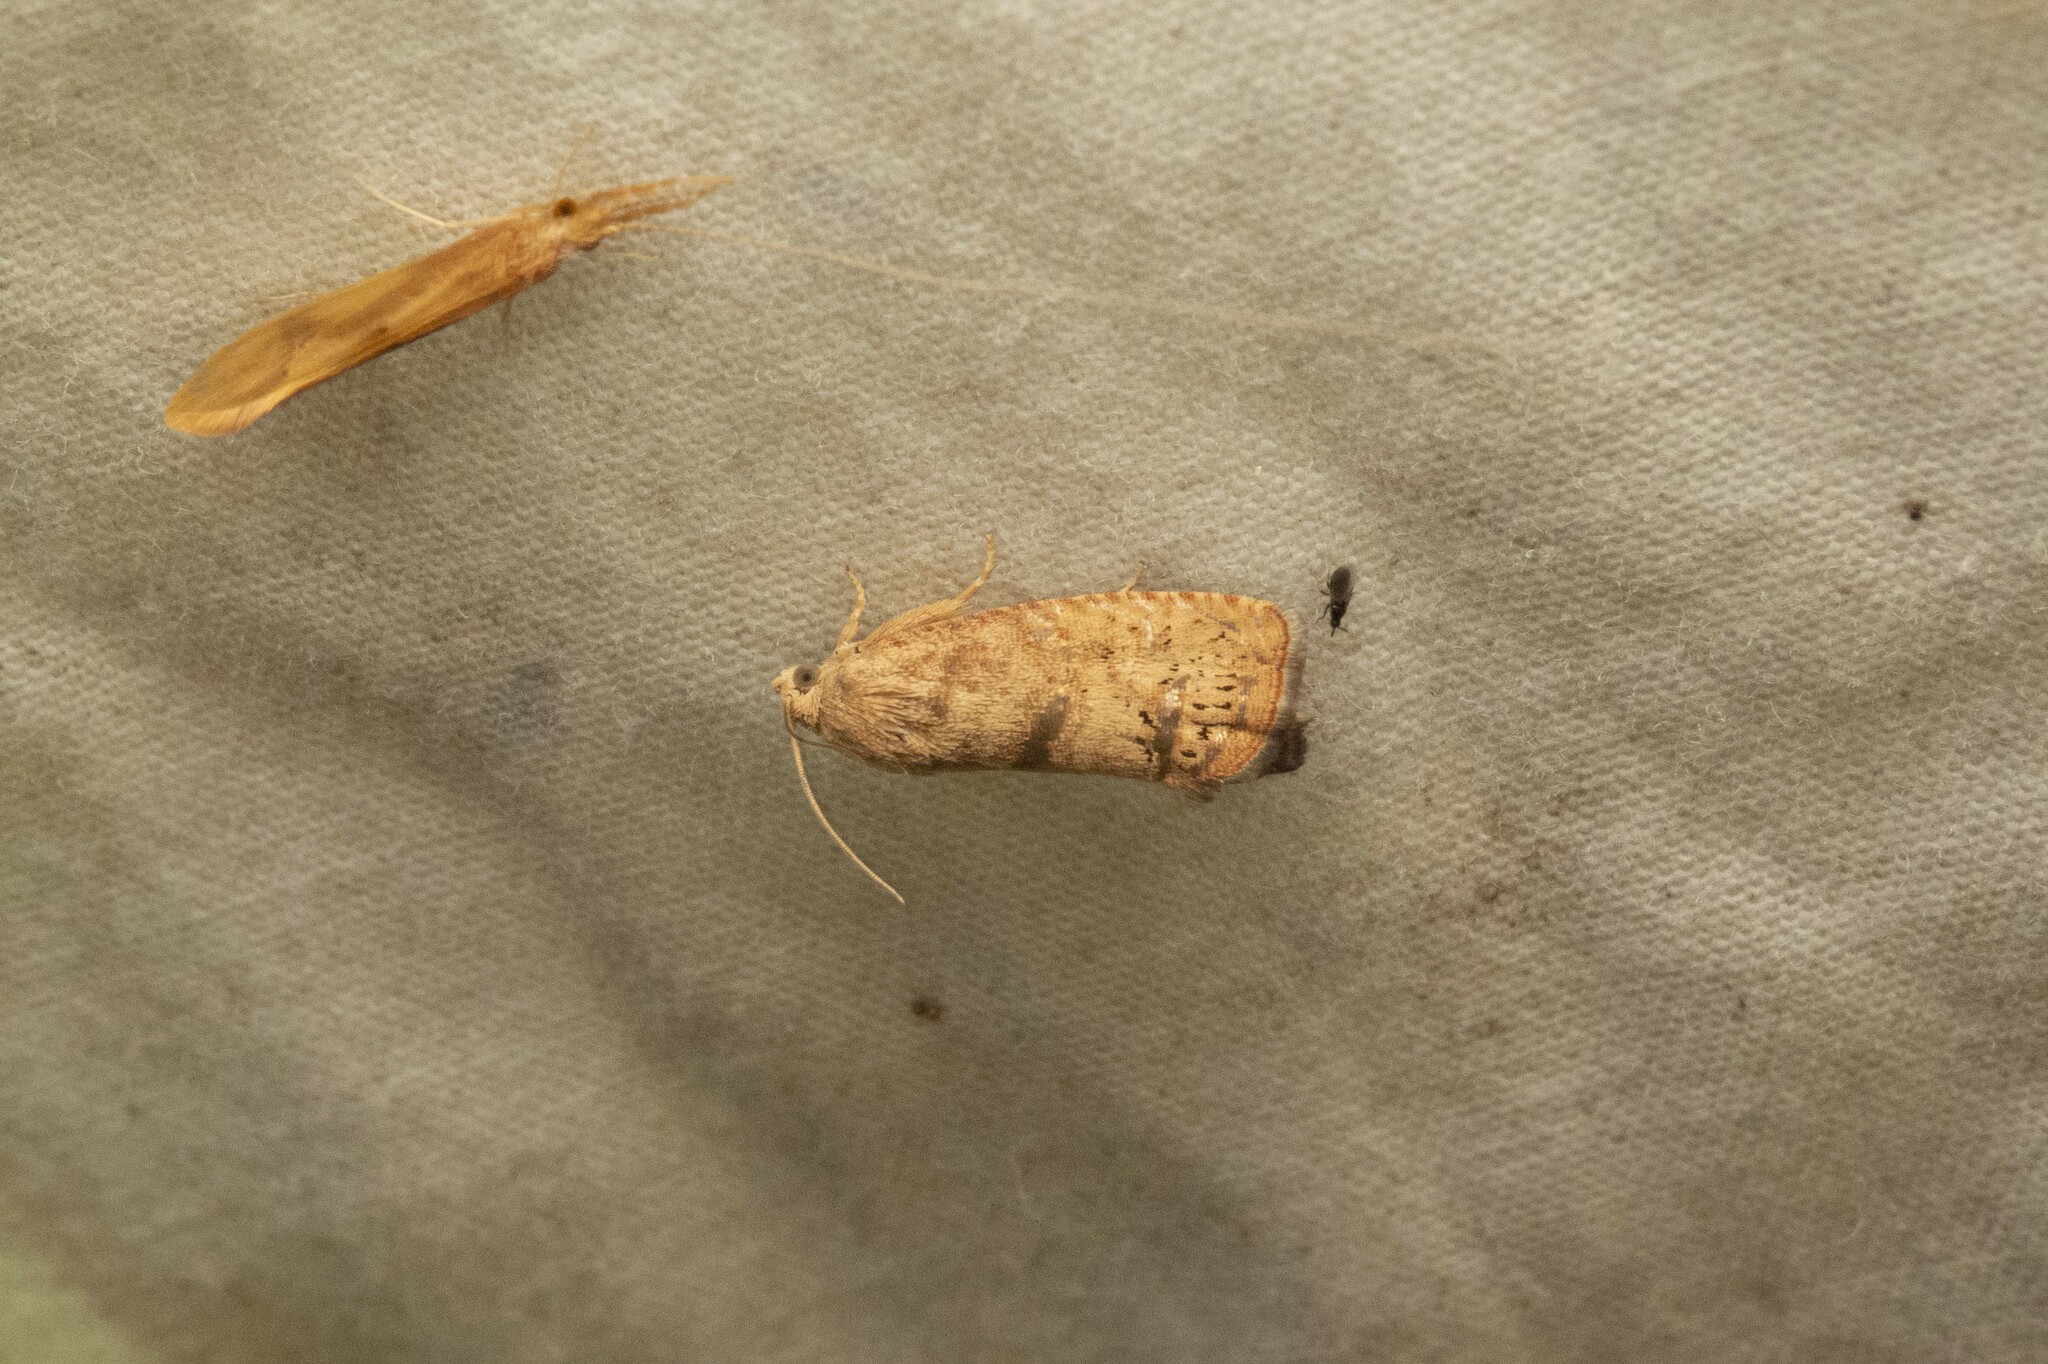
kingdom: Animalia
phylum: Arthropoda
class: Insecta
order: Lepidoptera
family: Tortricidae
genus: Cydia
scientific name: Cydia latiferreana
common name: Filbertworm moth
